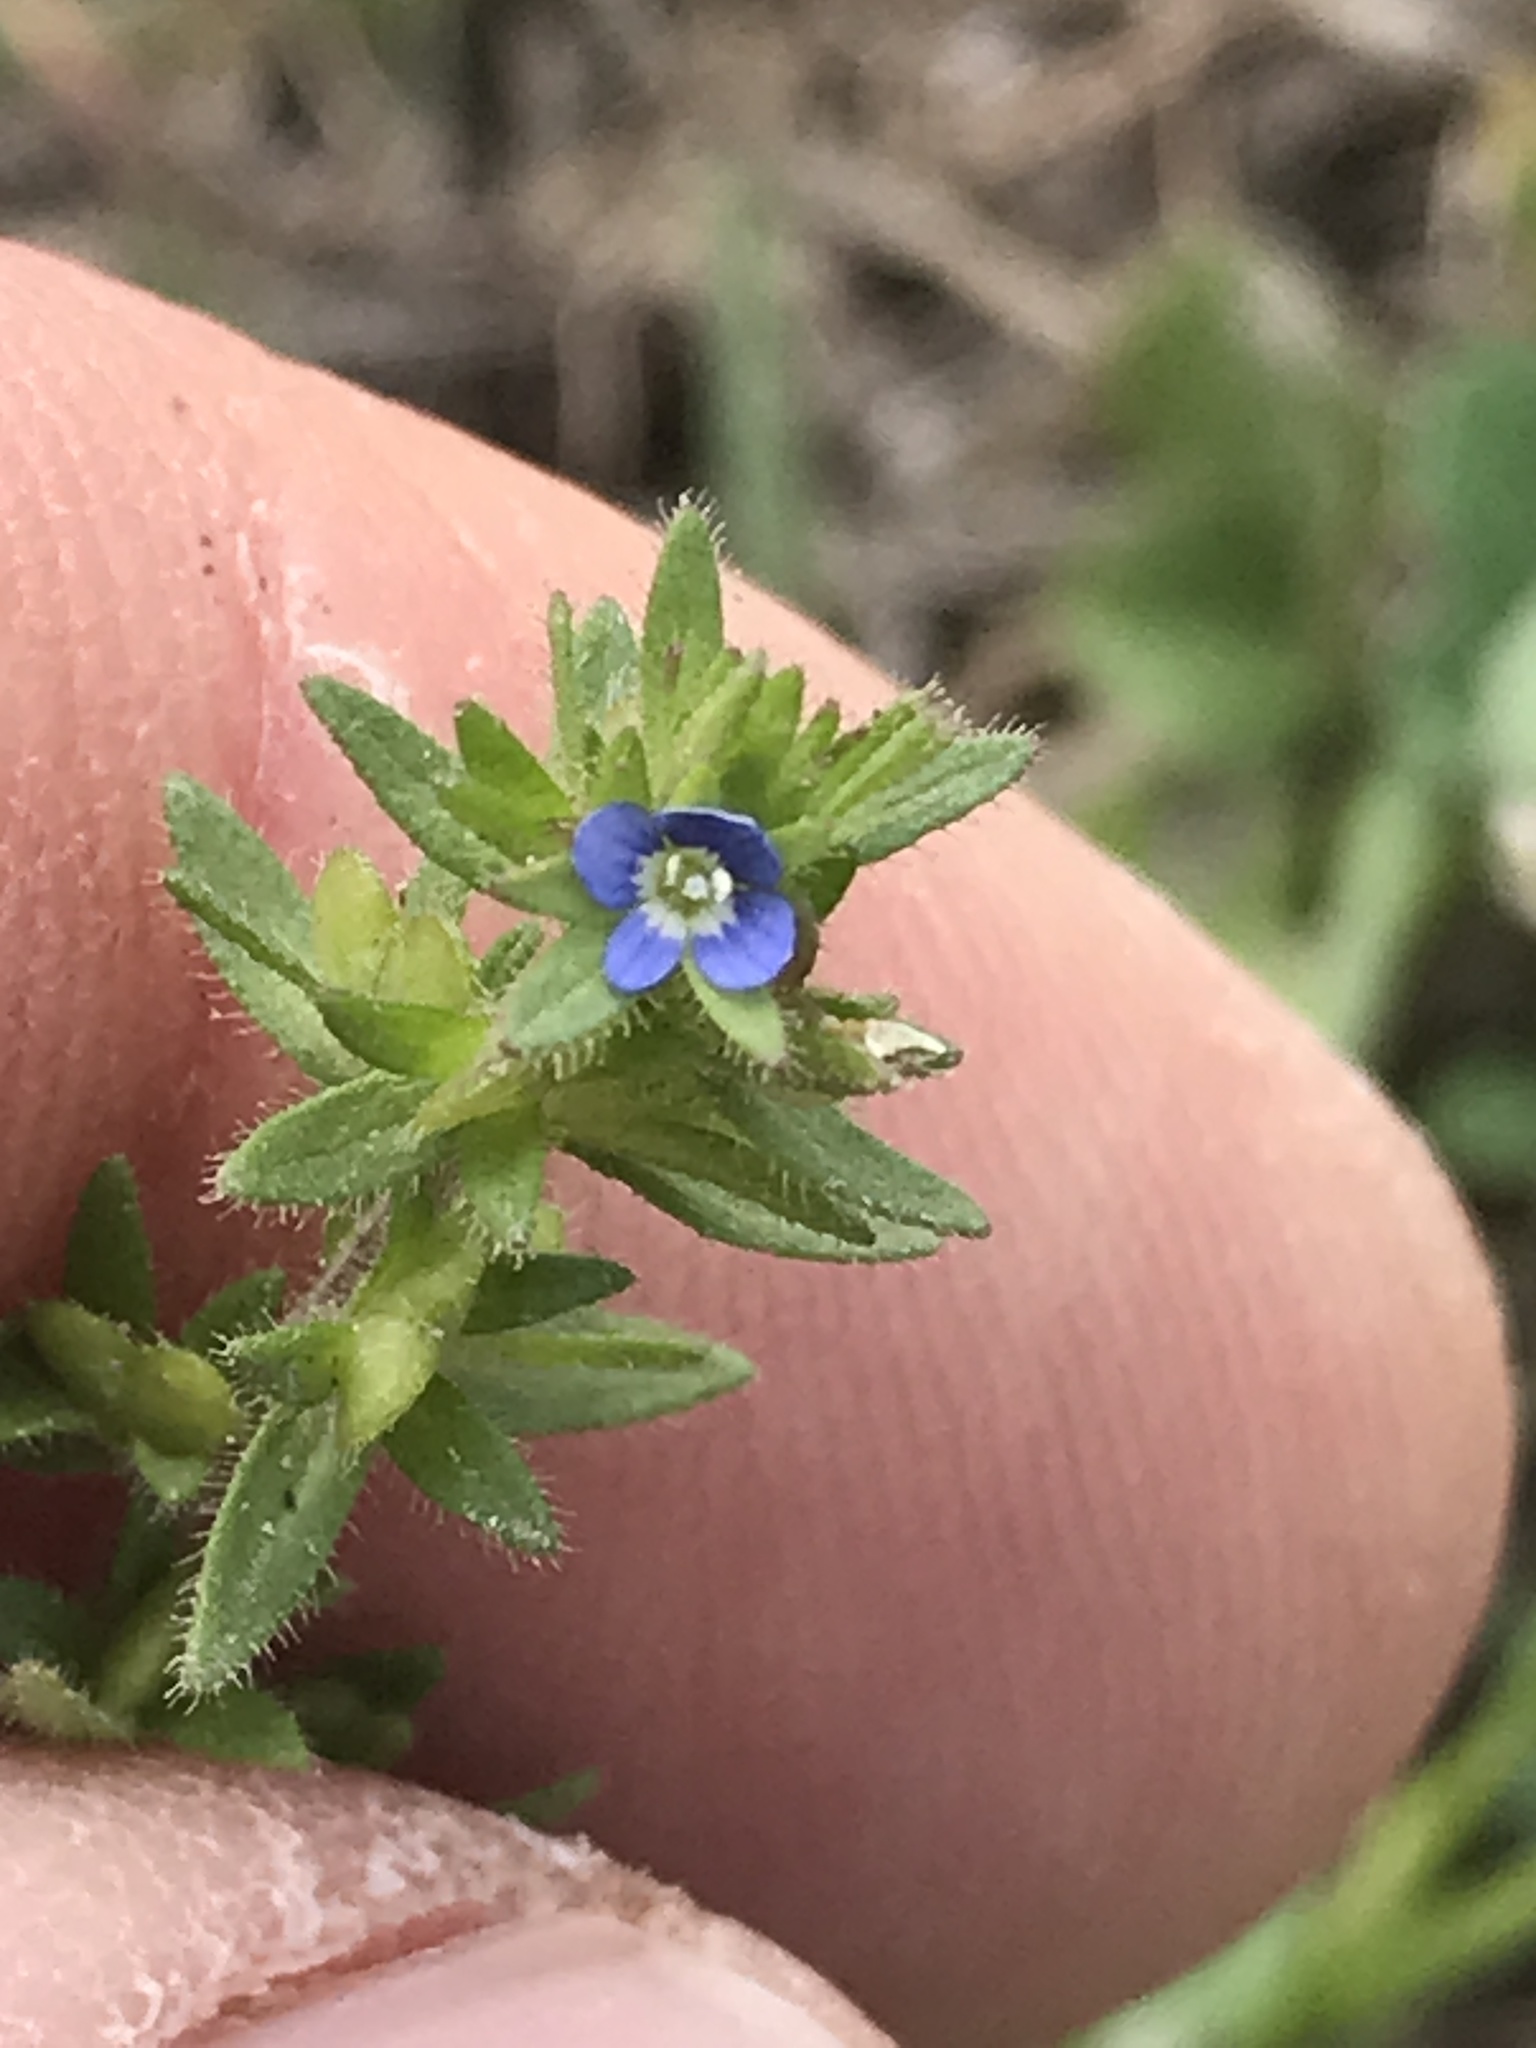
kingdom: Plantae
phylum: Tracheophyta
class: Magnoliopsida
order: Lamiales
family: Plantaginaceae
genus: Veronica
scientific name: Veronica arvensis
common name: Corn speedwell
